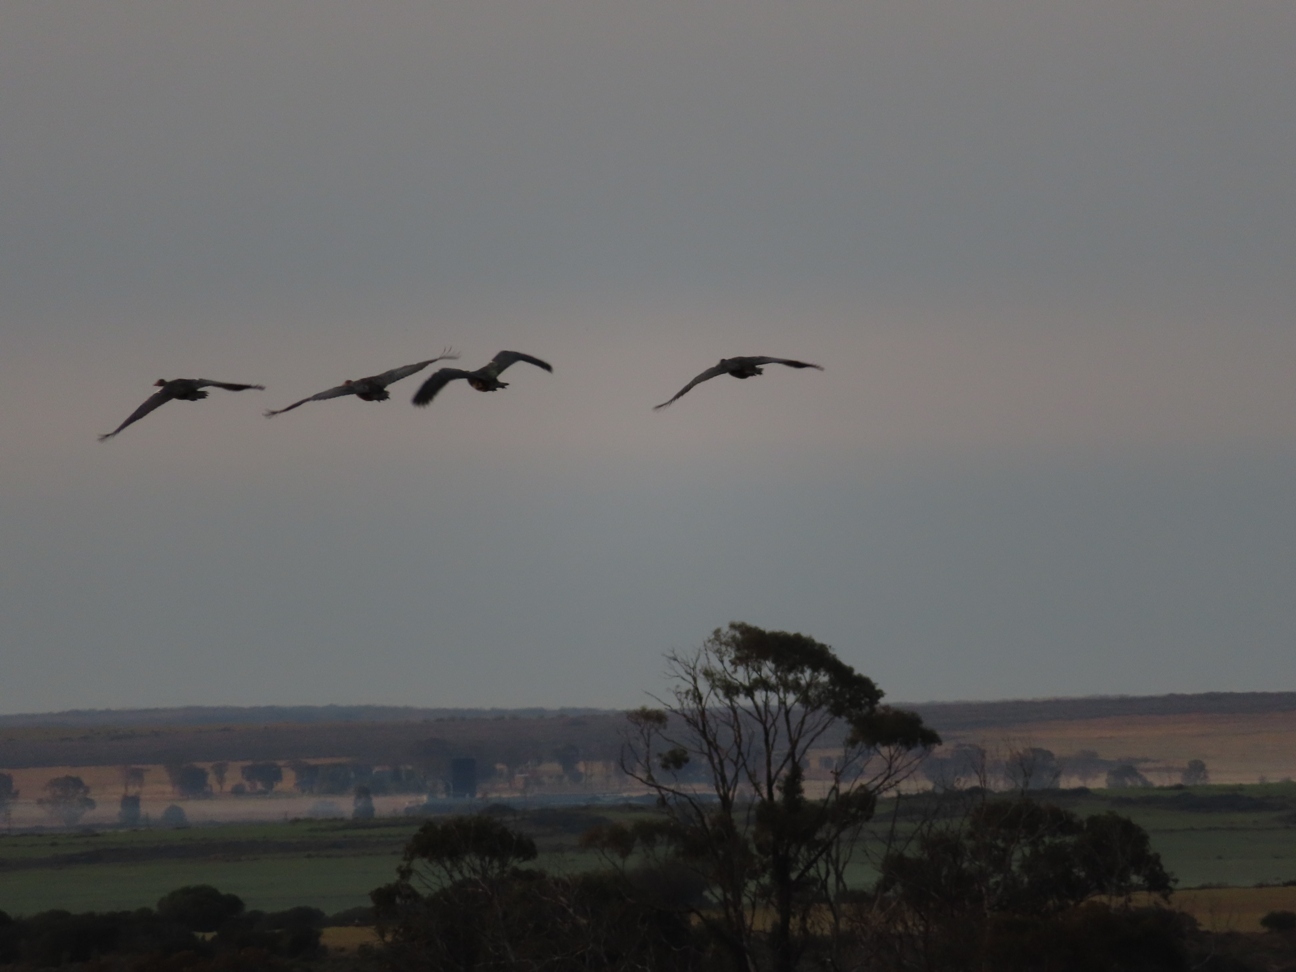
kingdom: Animalia
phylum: Chordata
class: Aves
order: Anseriformes
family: Anatidae
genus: Plectropterus
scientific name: Plectropterus gambensis
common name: Spur-winged goose
